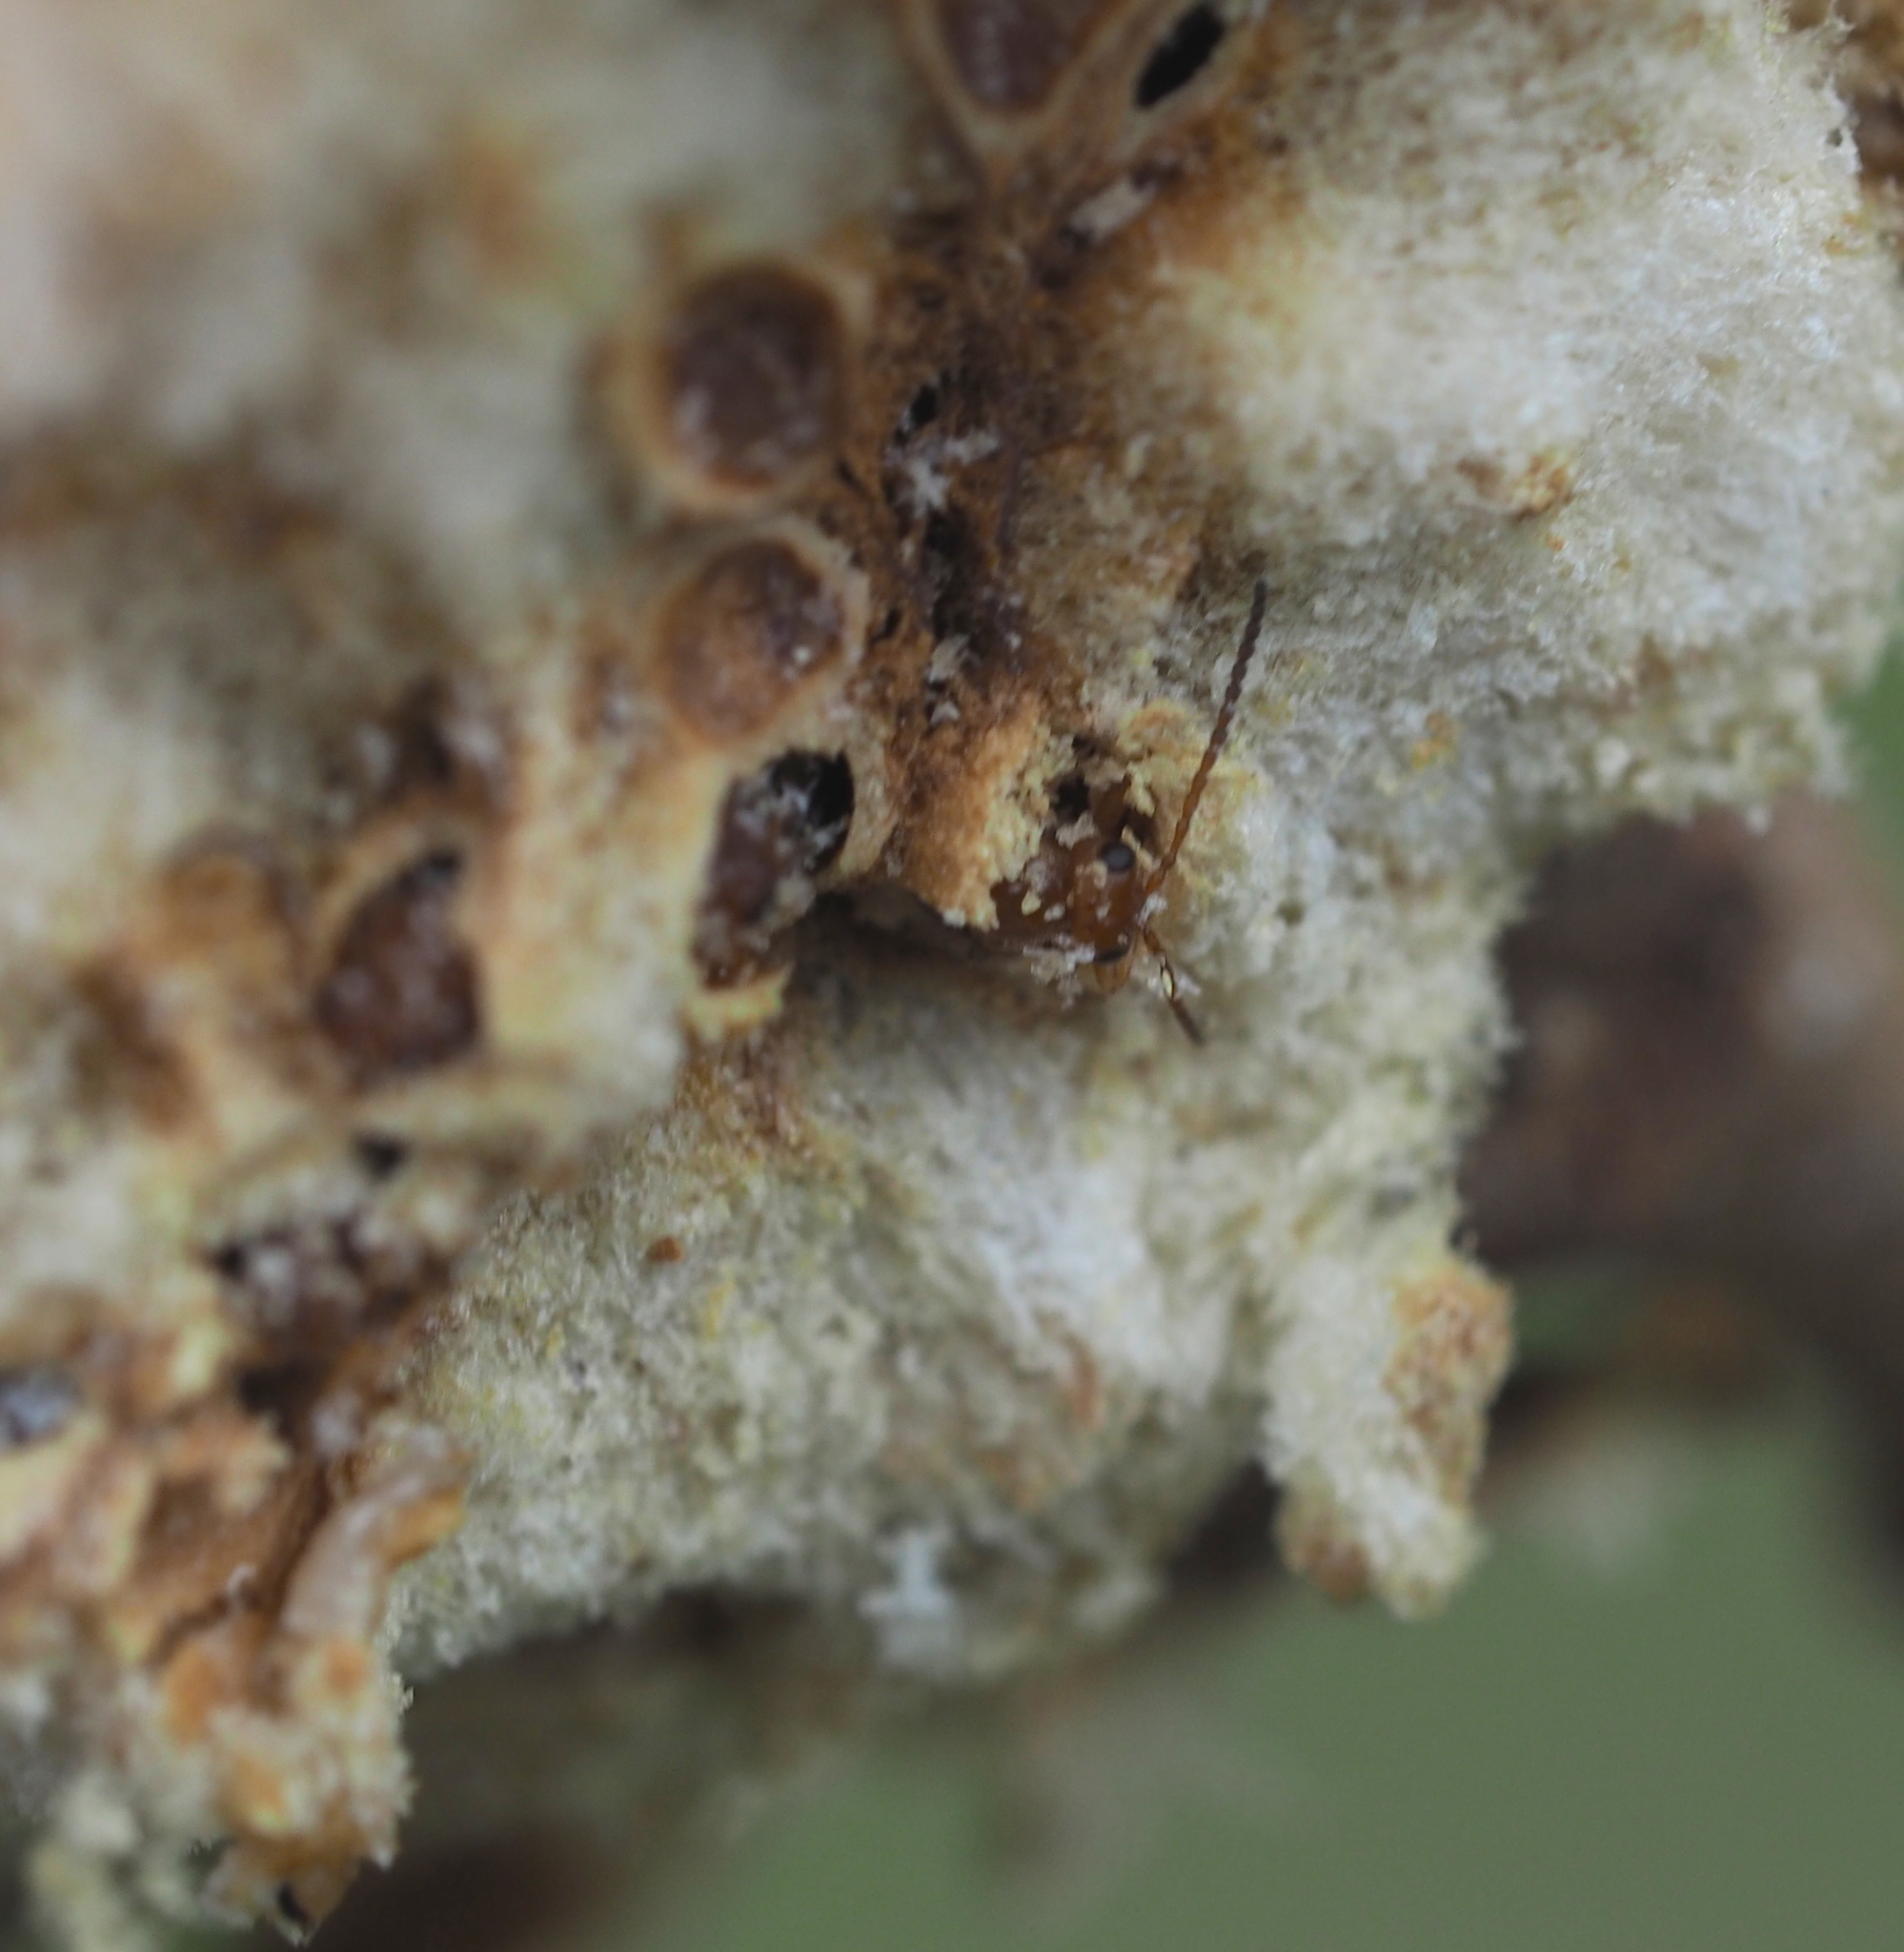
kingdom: Animalia
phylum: Arthropoda
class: Insecta
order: Hymenoptera
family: Cynipidae
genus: Biorhiza
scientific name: Biorhiza pallida
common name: Oak apple
